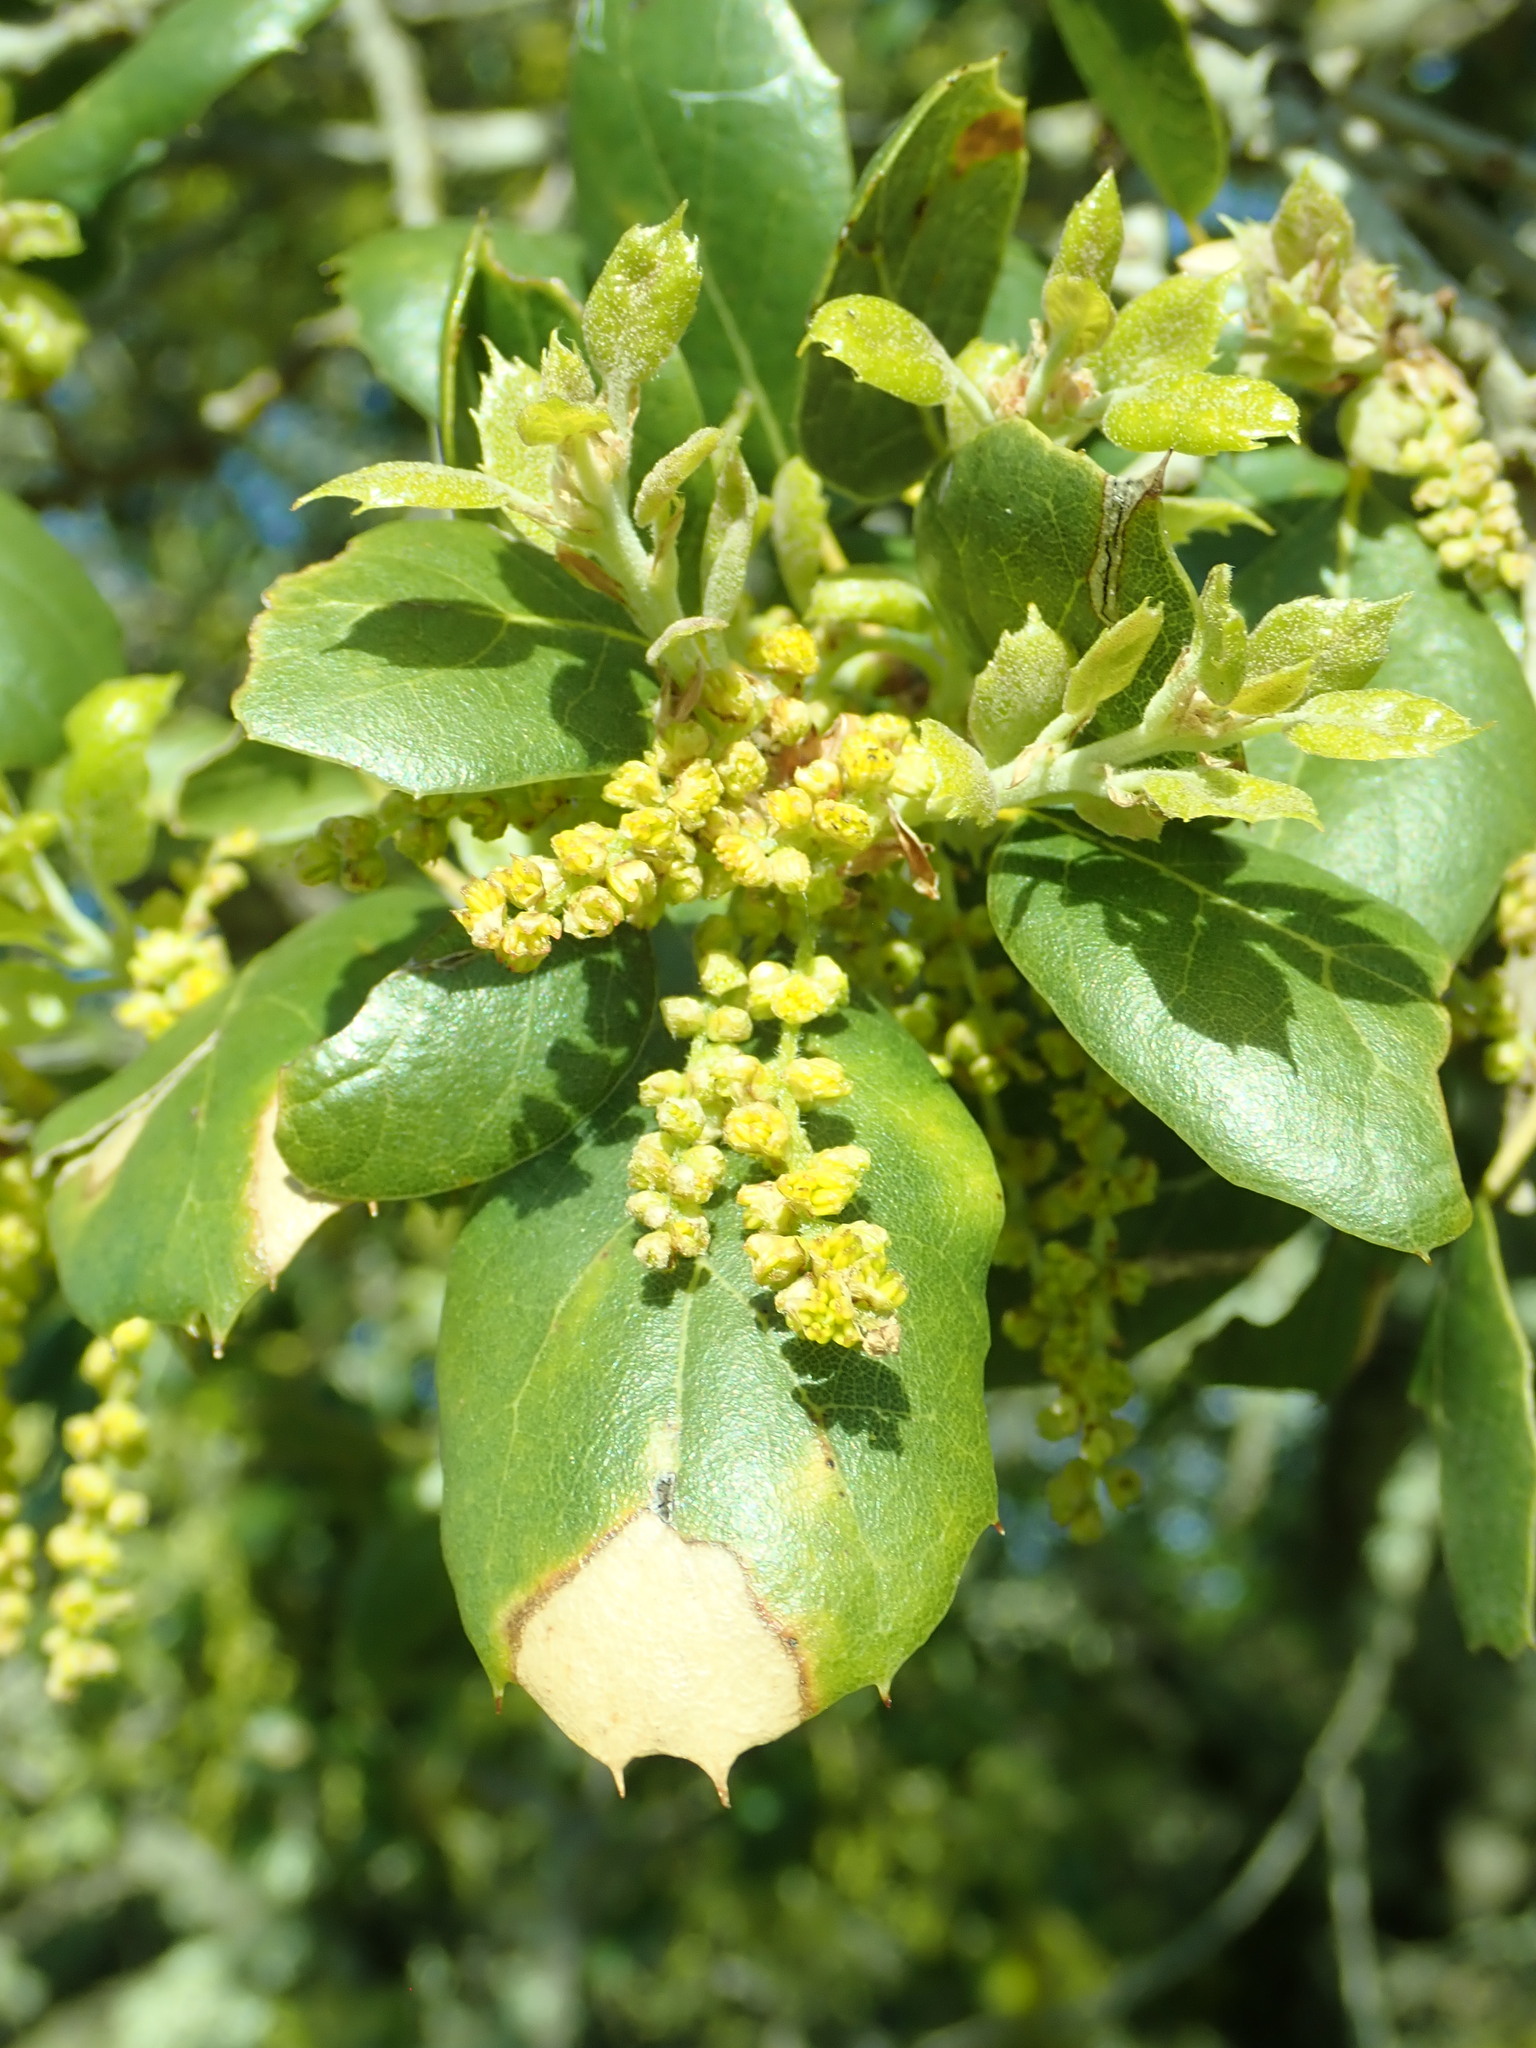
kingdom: Plantae
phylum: Tracheophyta
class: Magnoliopsida
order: Fagales
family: Fagaceae
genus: Quercus
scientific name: Quercus agrifolia
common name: California live oak
